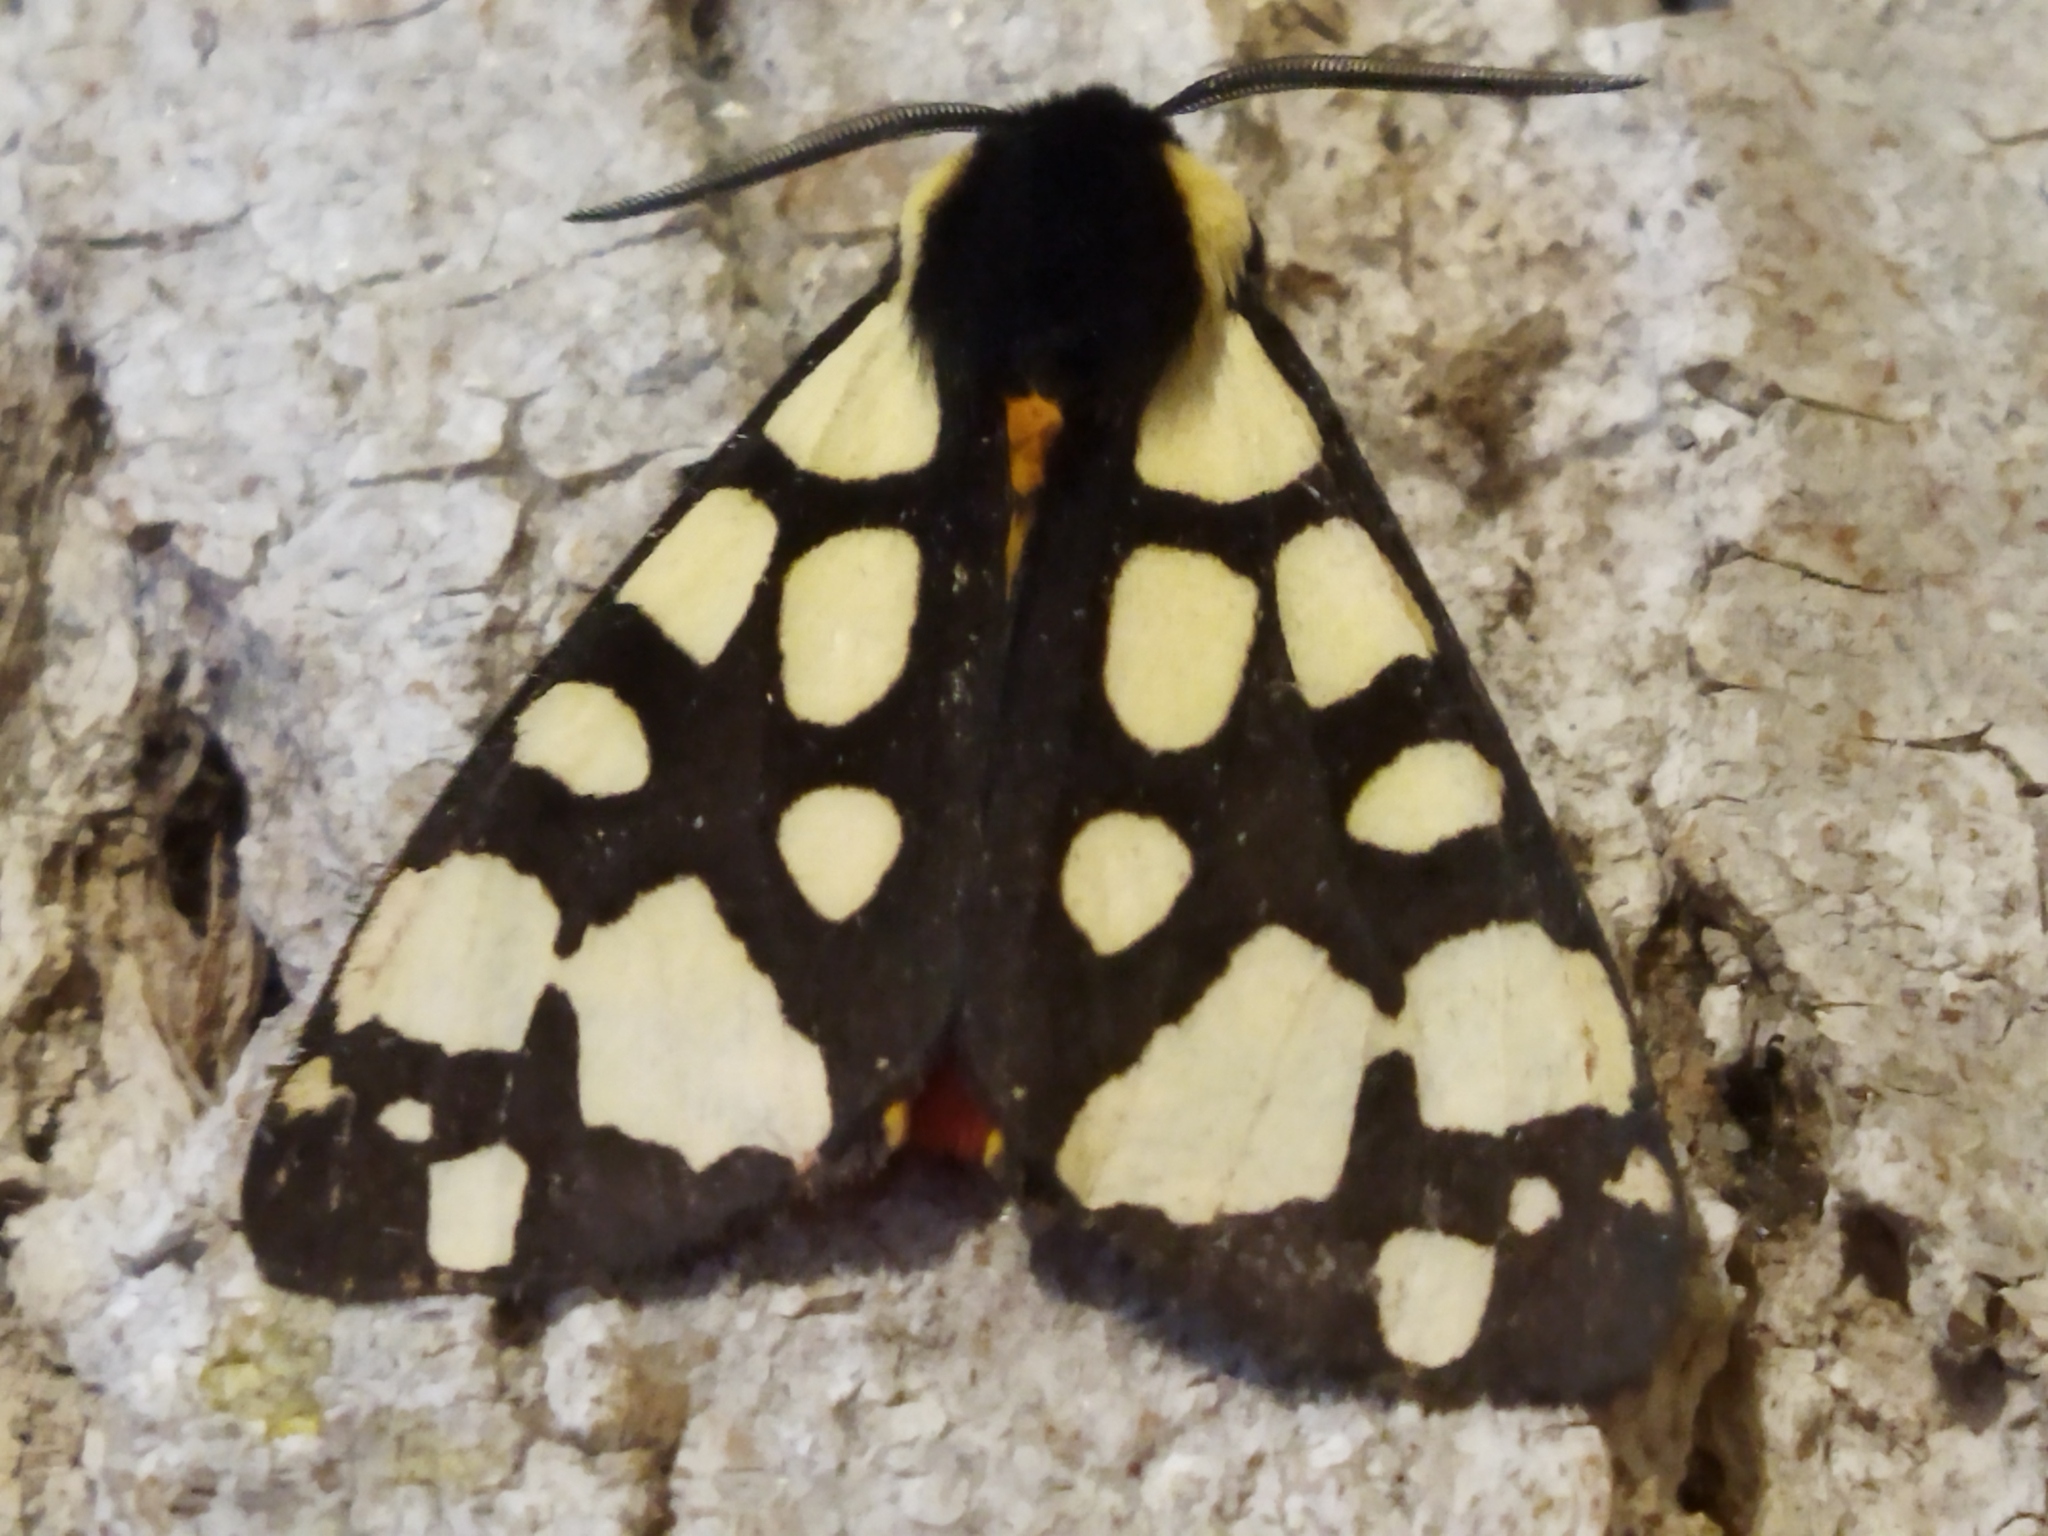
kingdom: Animalia
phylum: Arthropoda
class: Insecta
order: Lepidoptera
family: Erebidae
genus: Epicallia
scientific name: Epicallia villica
